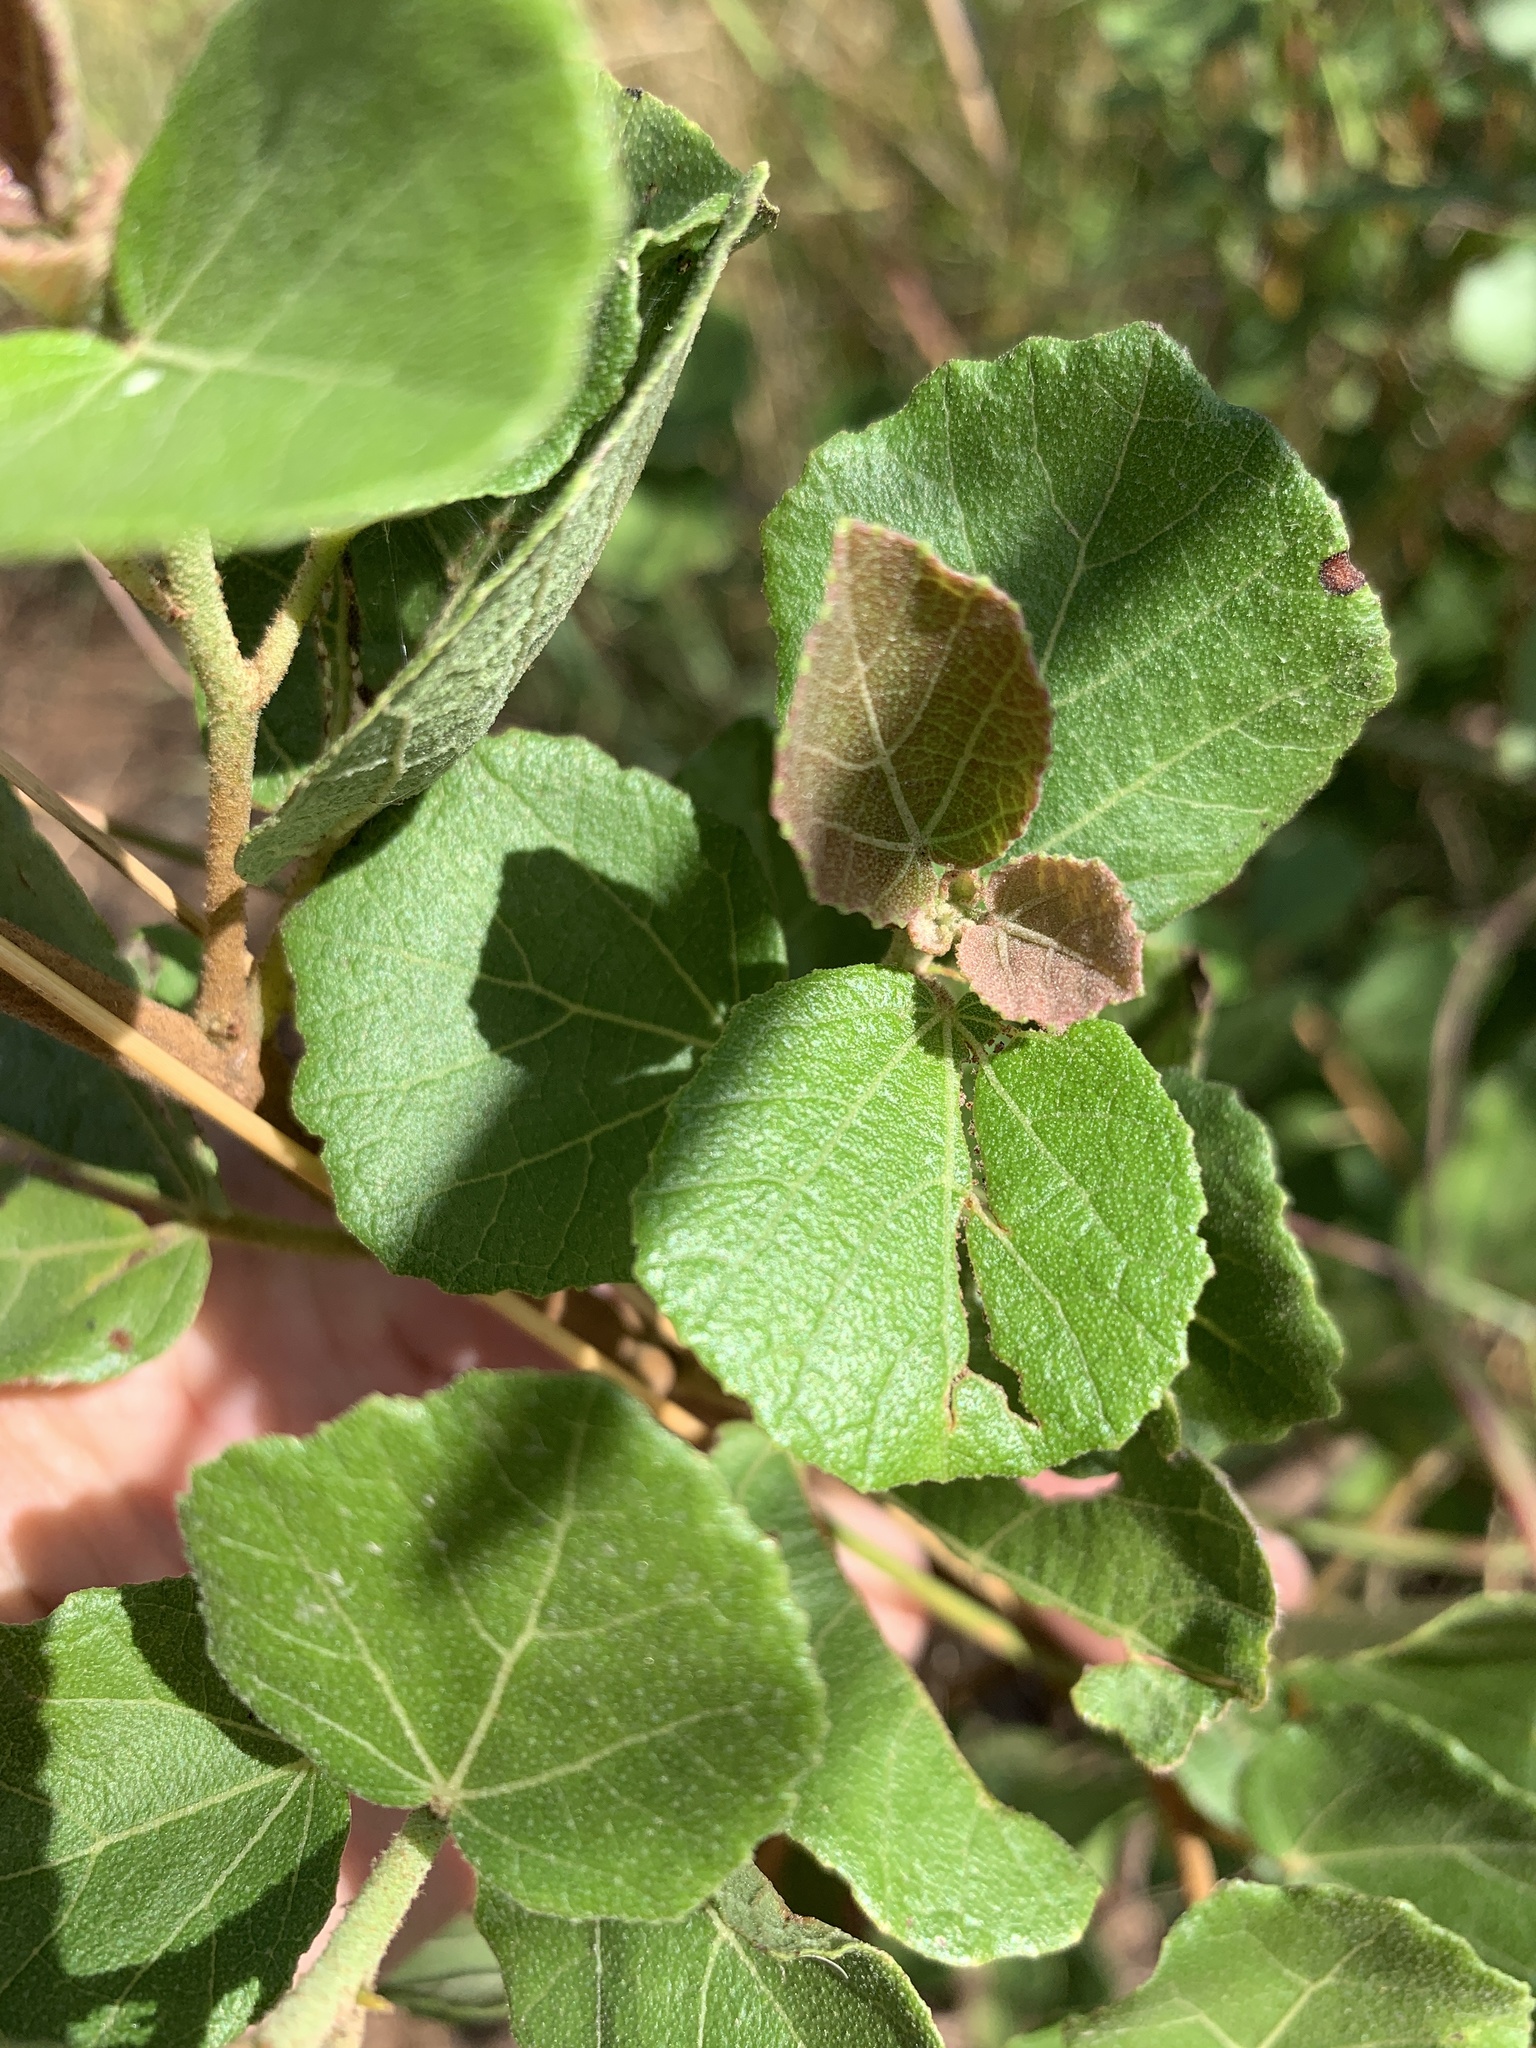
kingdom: Plantae
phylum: Tracheophyta
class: Magnoliopsida
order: Malvales
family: Malvaceae
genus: Dombeya
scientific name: Dombeya rotundifolia
